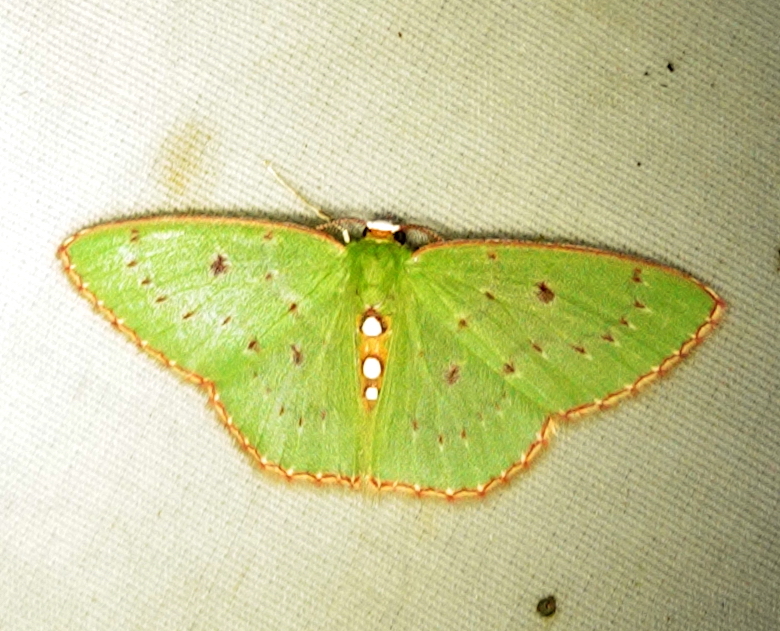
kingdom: Animalia
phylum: Arthropoda
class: Insecta
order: Lepidoptera
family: Geometridae
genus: Lissochlora
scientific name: Lissochlora albociliaria
